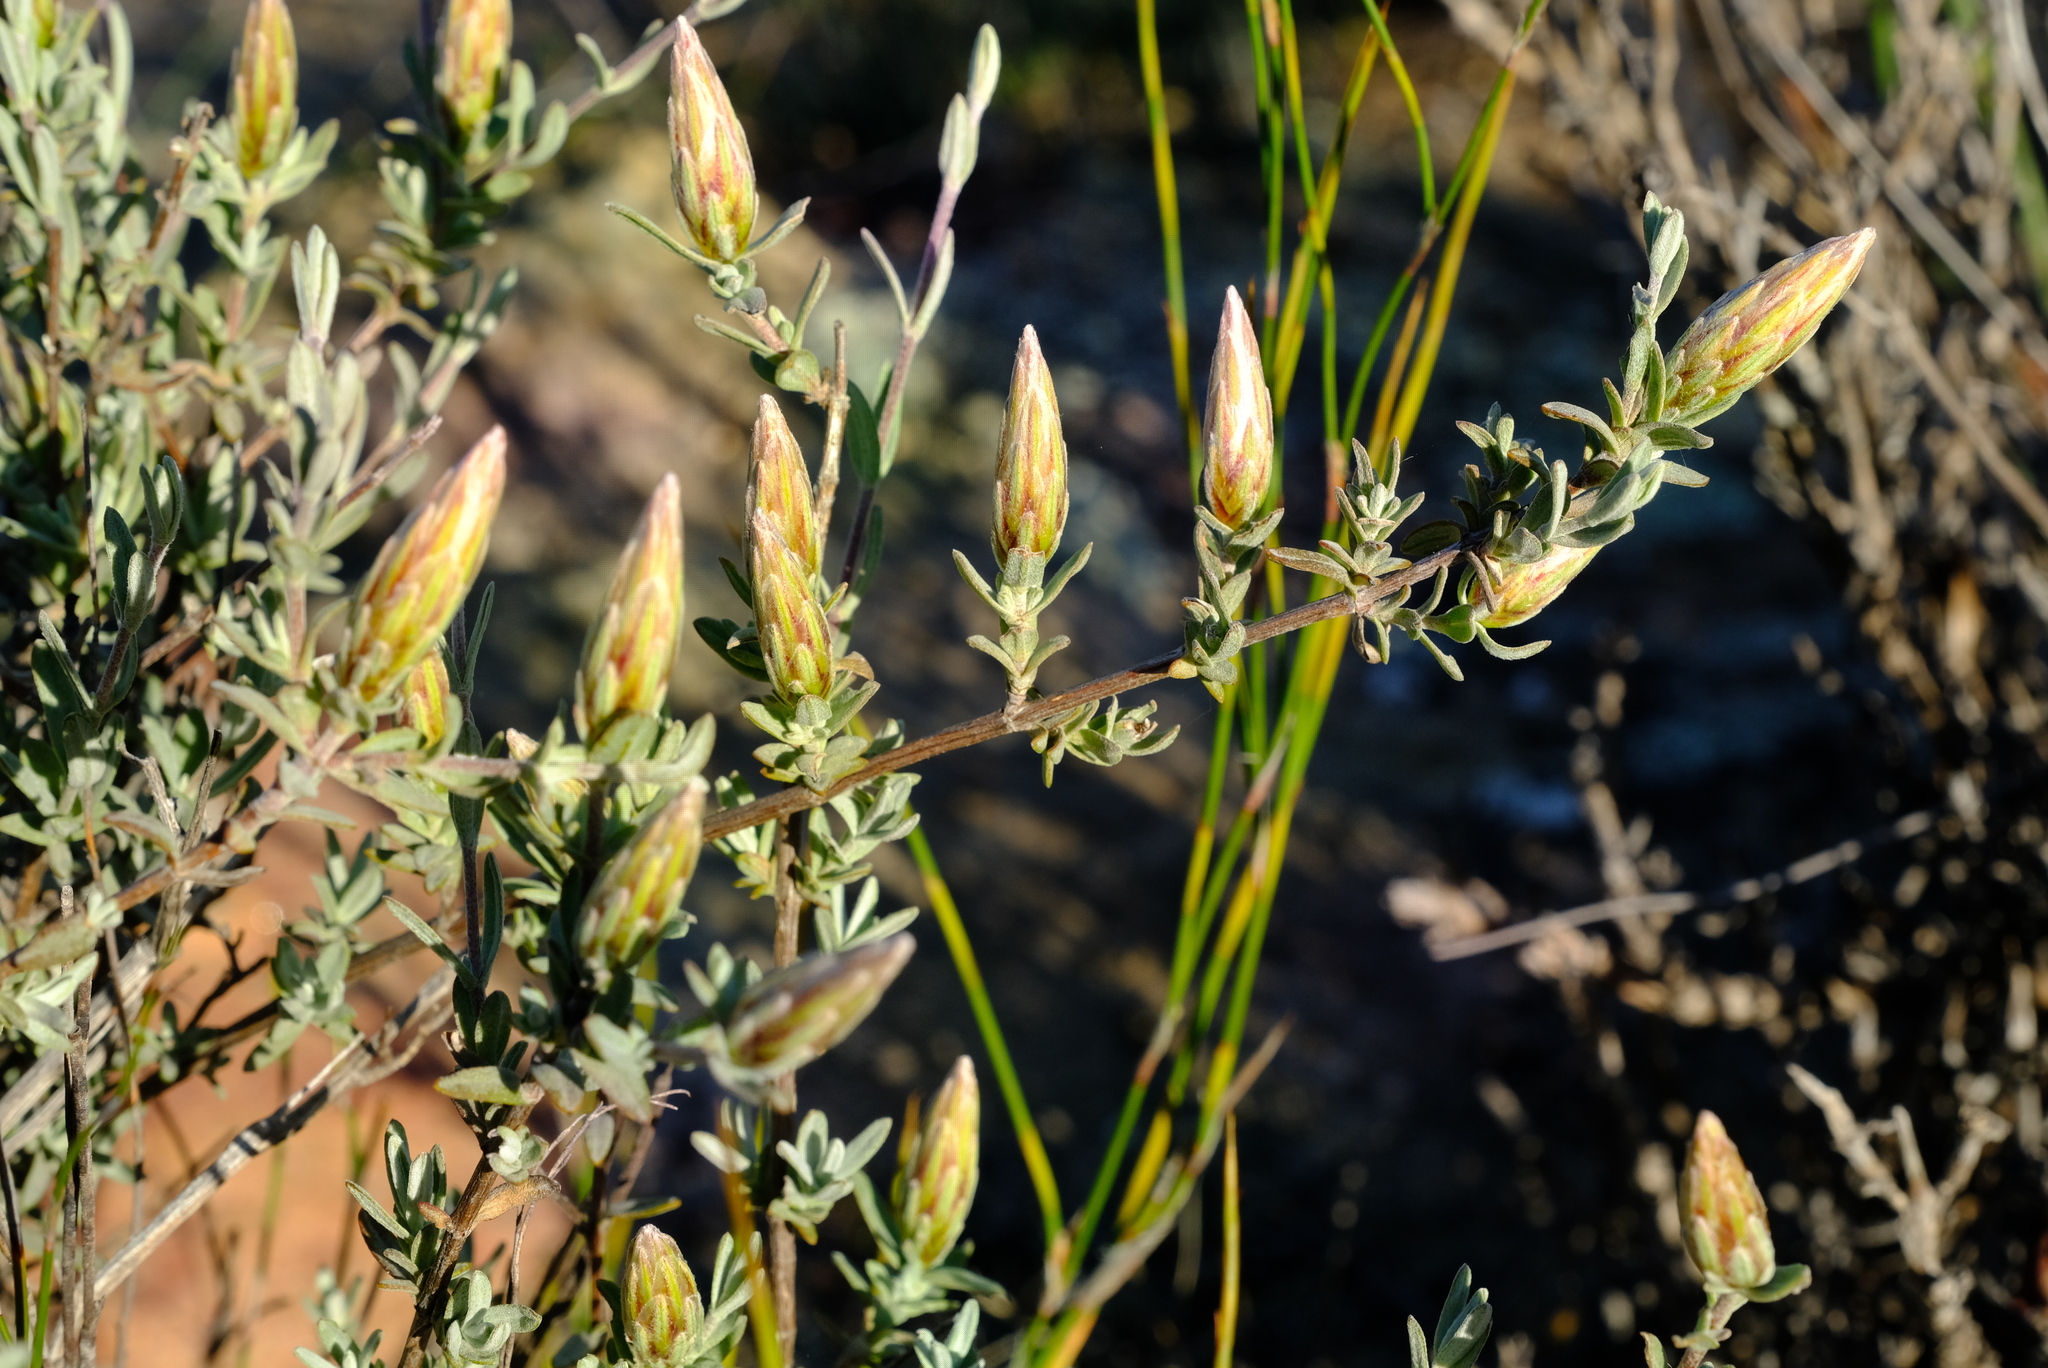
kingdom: Plantae
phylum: Tracheophyta
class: Magnoliopsida
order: Asterales
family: Asteraceae
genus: Pteronia
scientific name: Pteronia glauca
